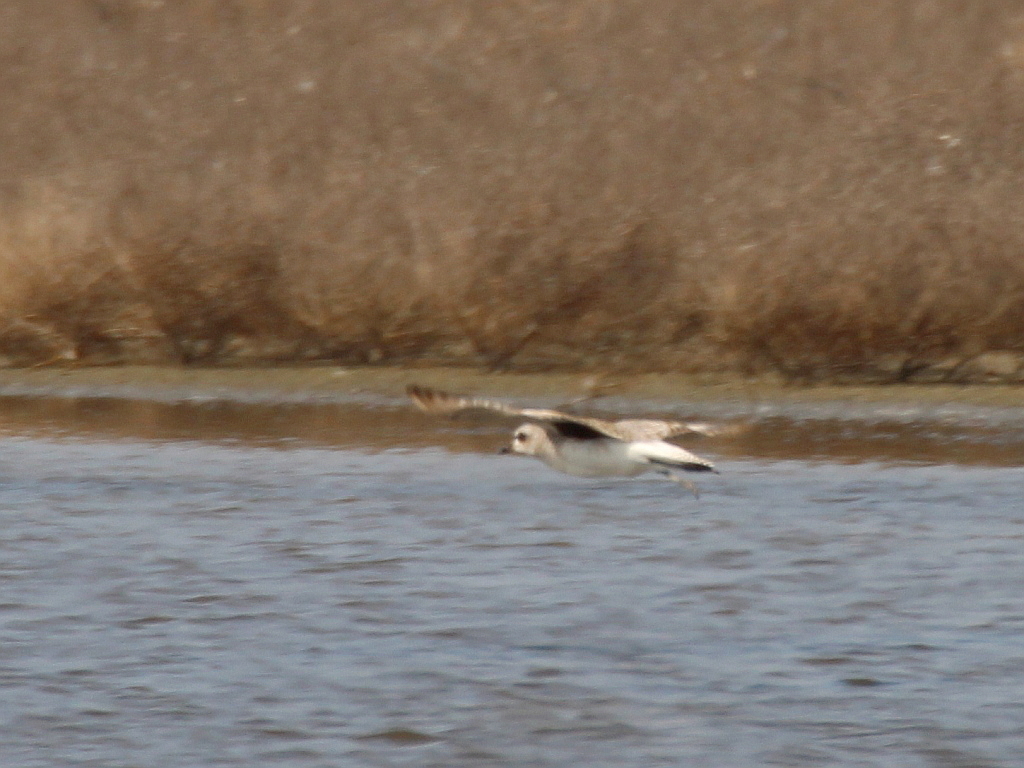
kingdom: Animalia
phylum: Chordata
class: Aves
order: Charadriiformes
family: Charadriidae
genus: Pluvialis
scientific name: Pluvialis squatarola
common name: Grey plover
